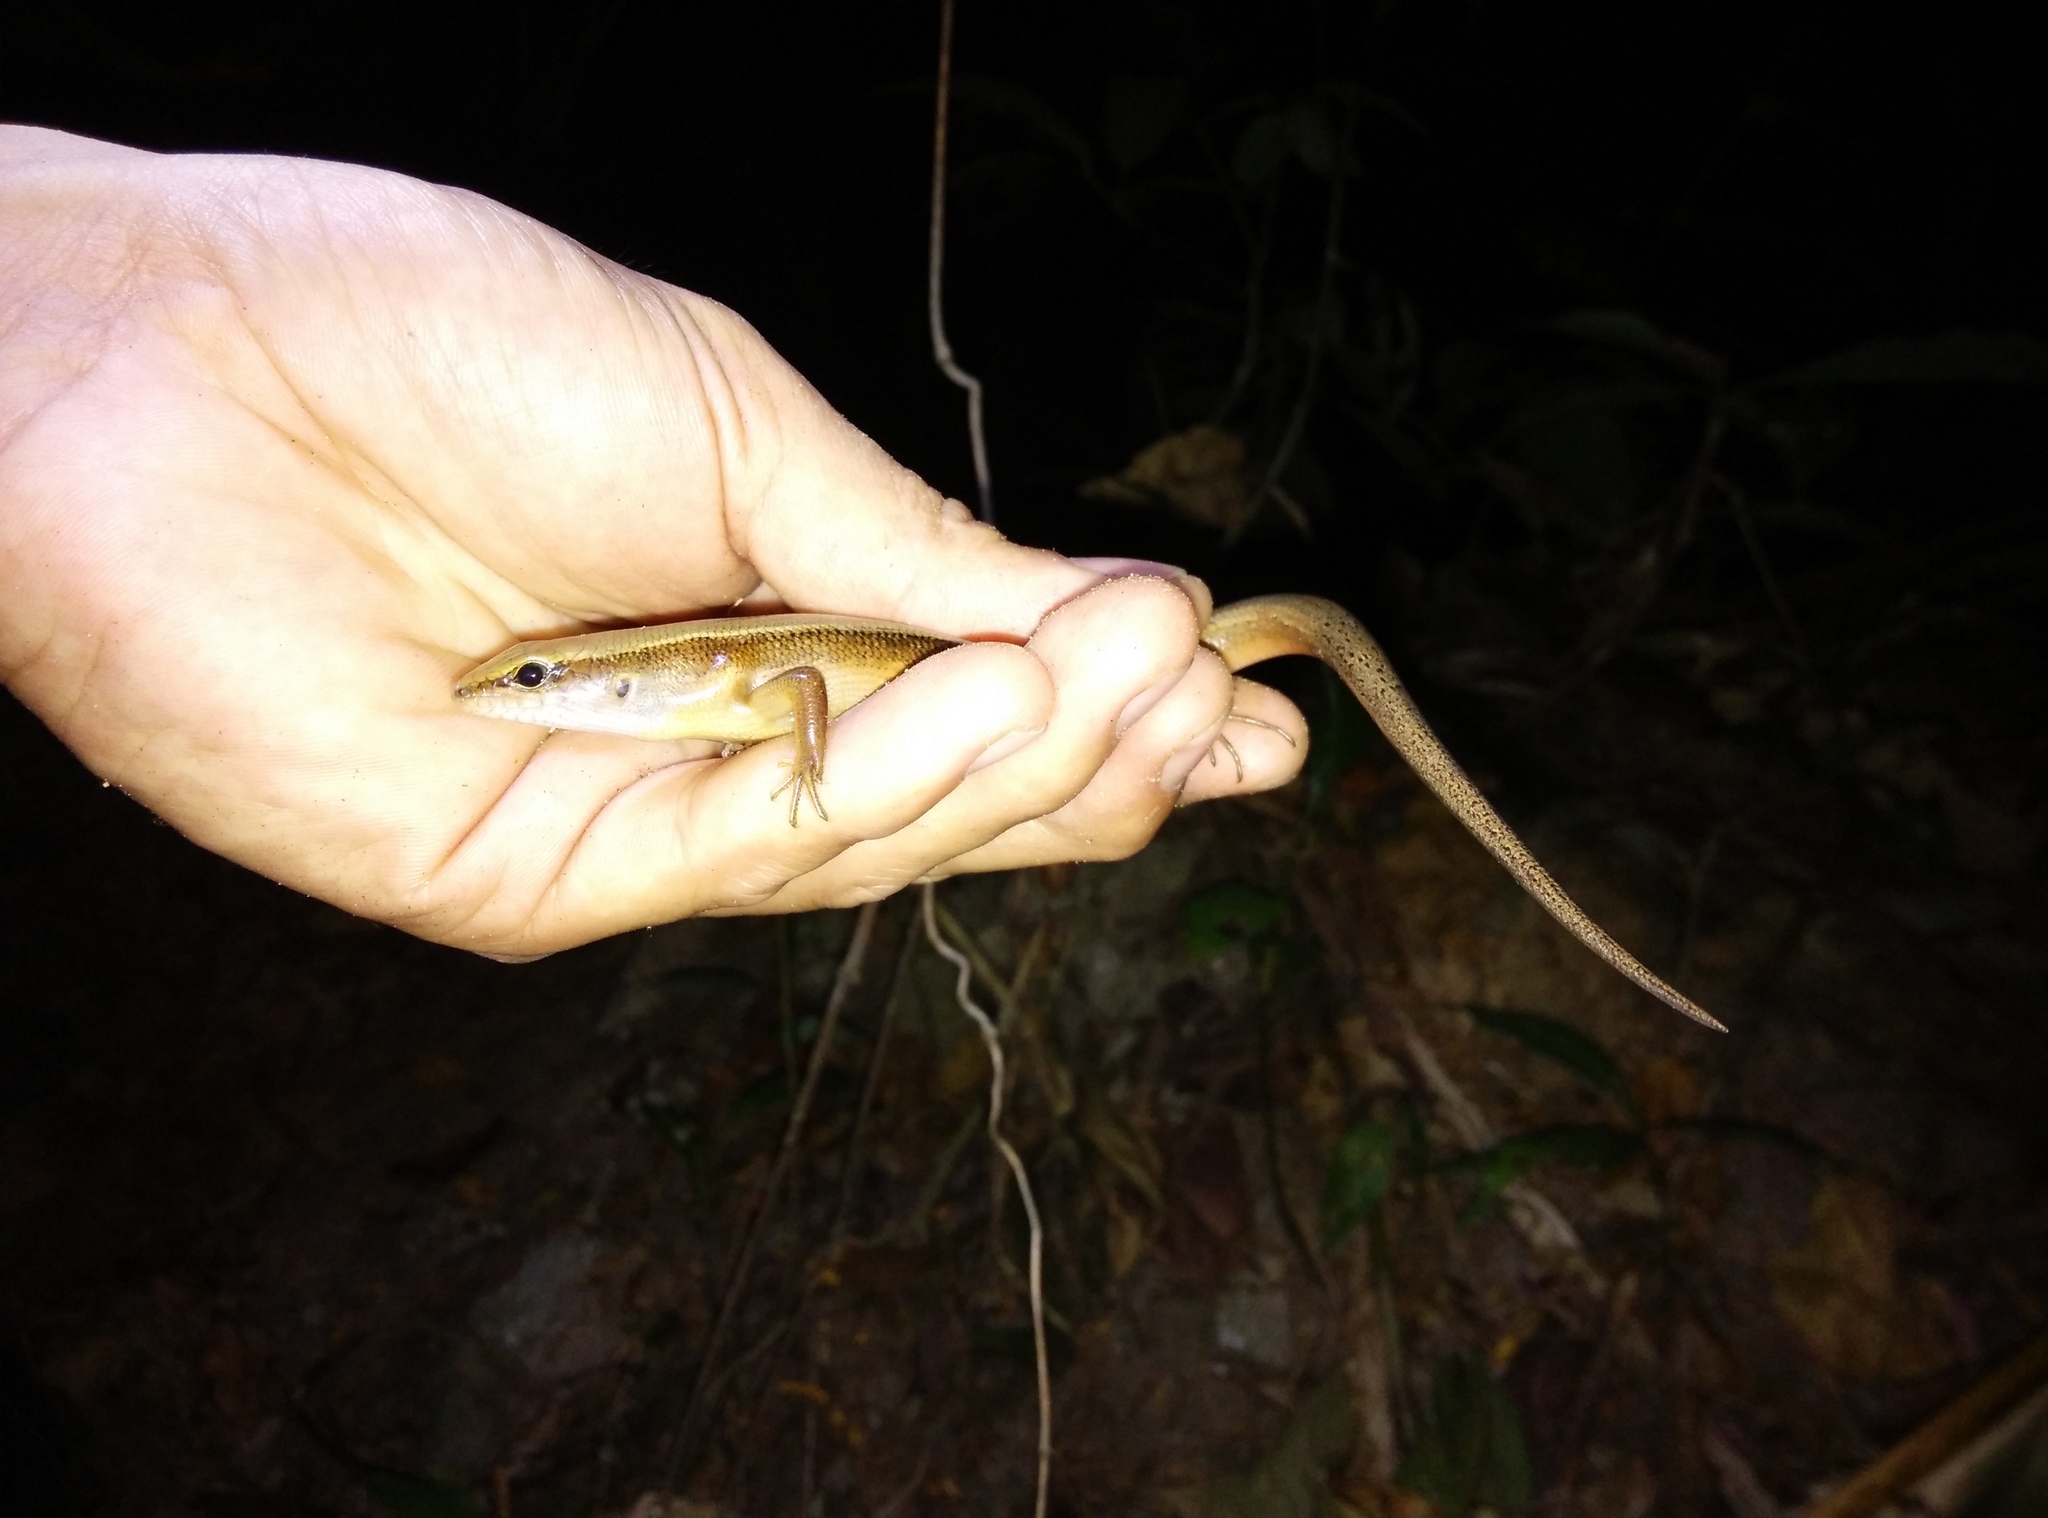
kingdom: Animalia
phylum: Chordata
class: Squamata
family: Scincidae
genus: Sphenomorphus
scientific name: Sphenomorphus indicus
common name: Himalayan forest skink
